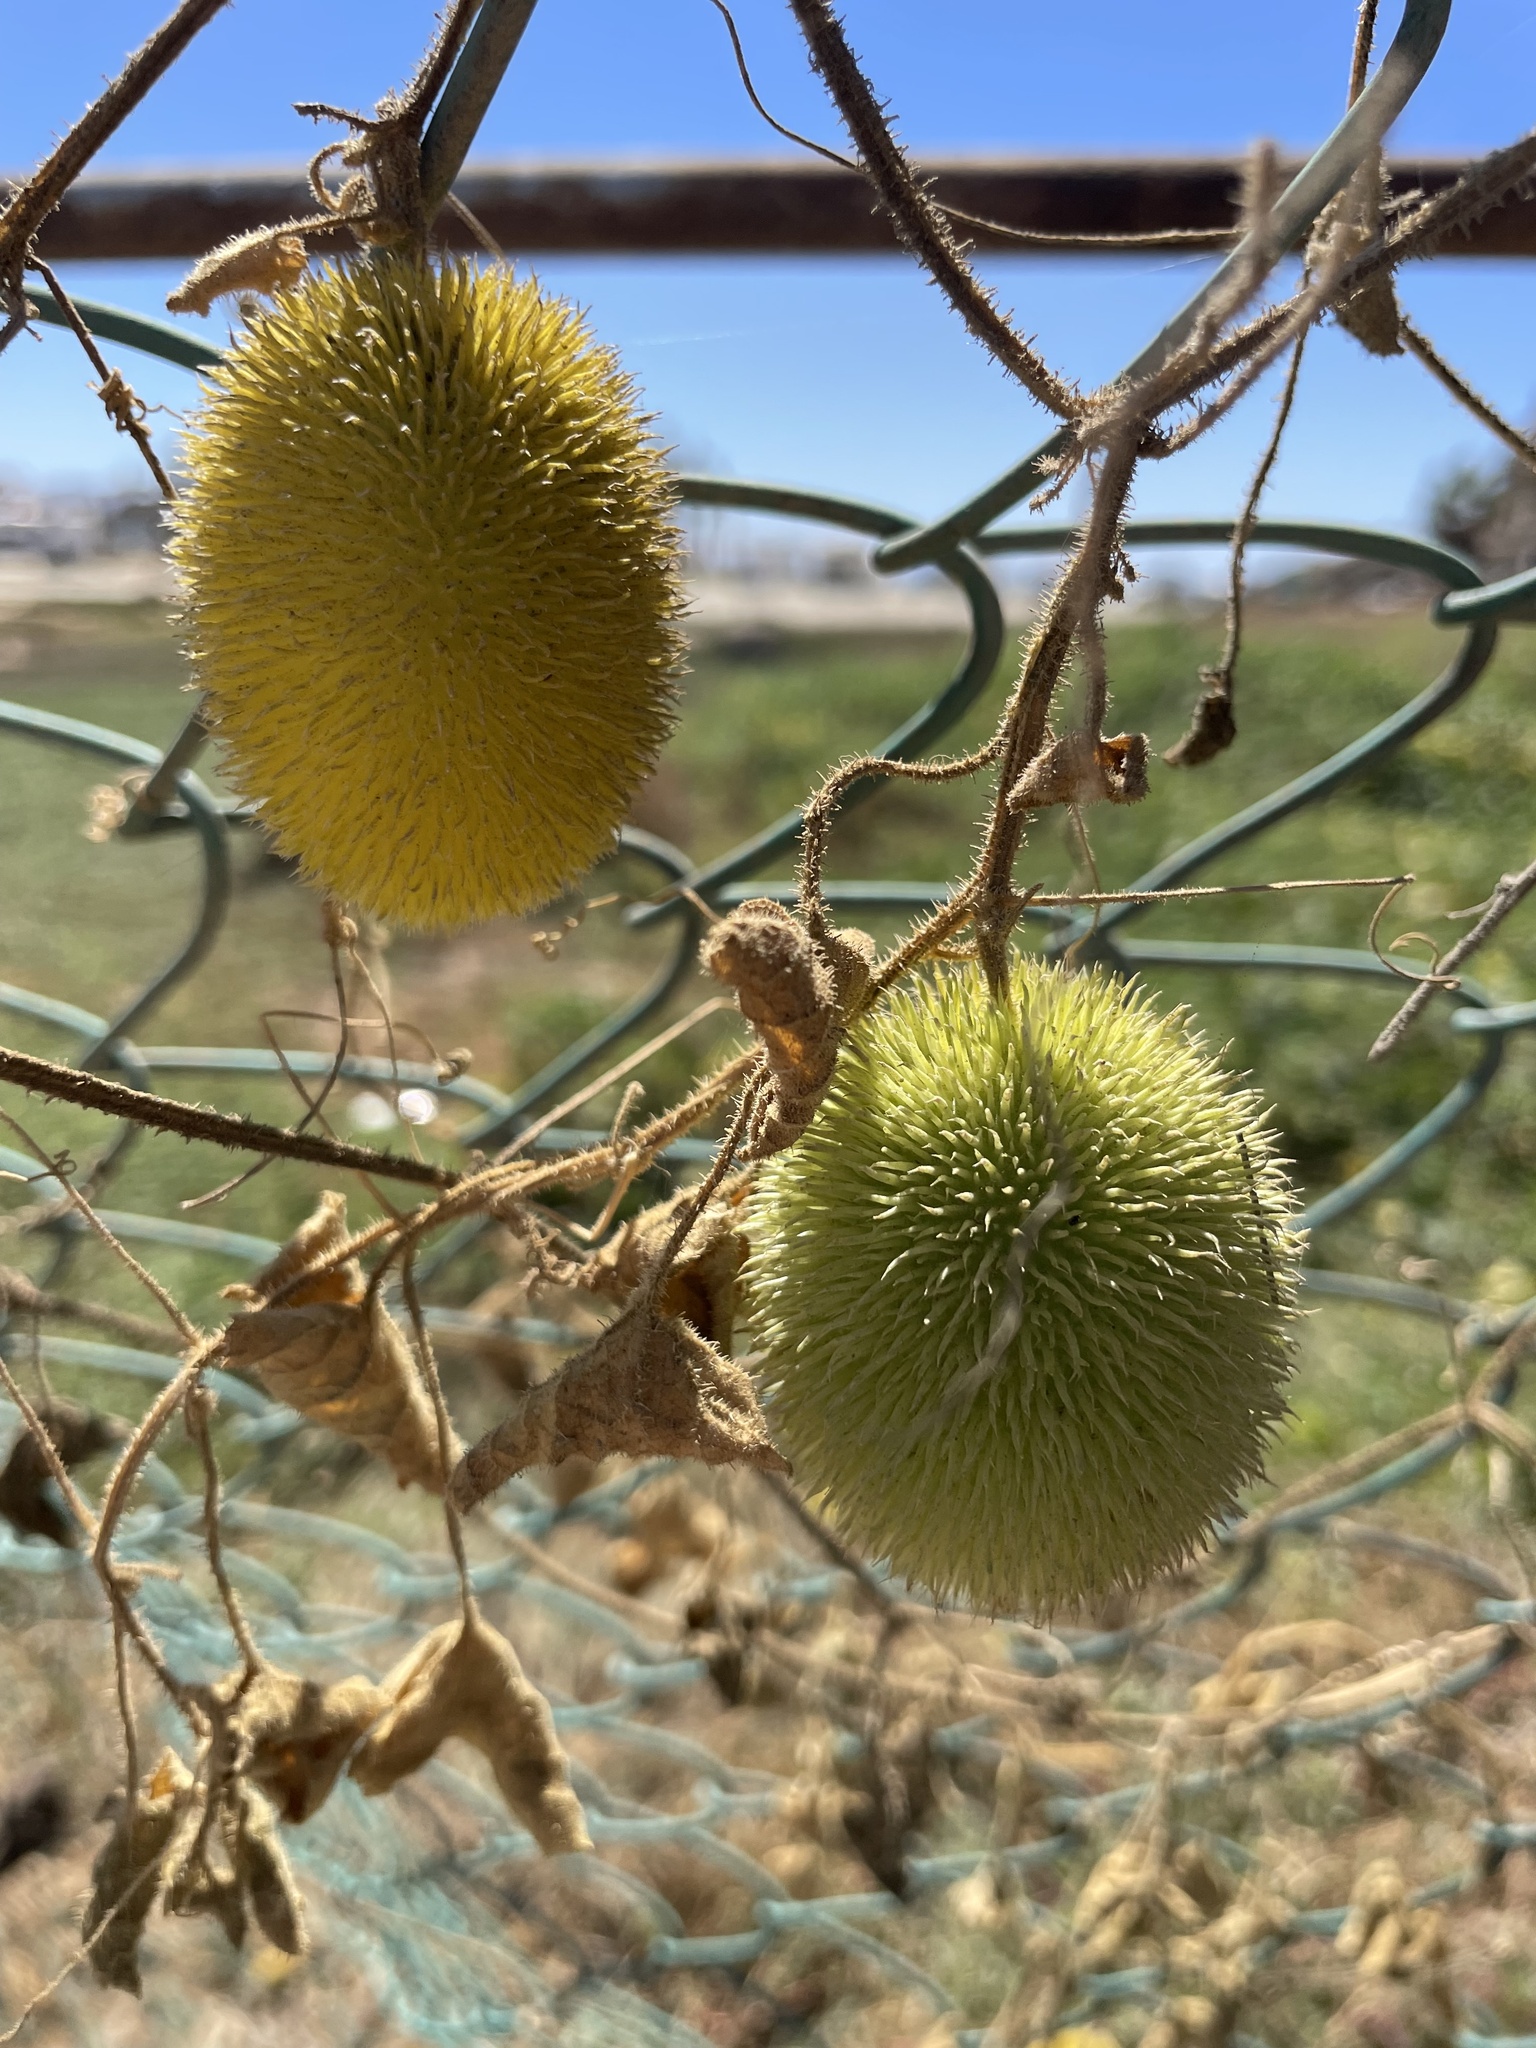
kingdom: Plantae
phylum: Tracheophyta
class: Magnoliopsida
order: Cucurbitales
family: Cucurbitaceae
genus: Cucumis
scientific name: Cucumis dipsaceus
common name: Hedgehog gourd
